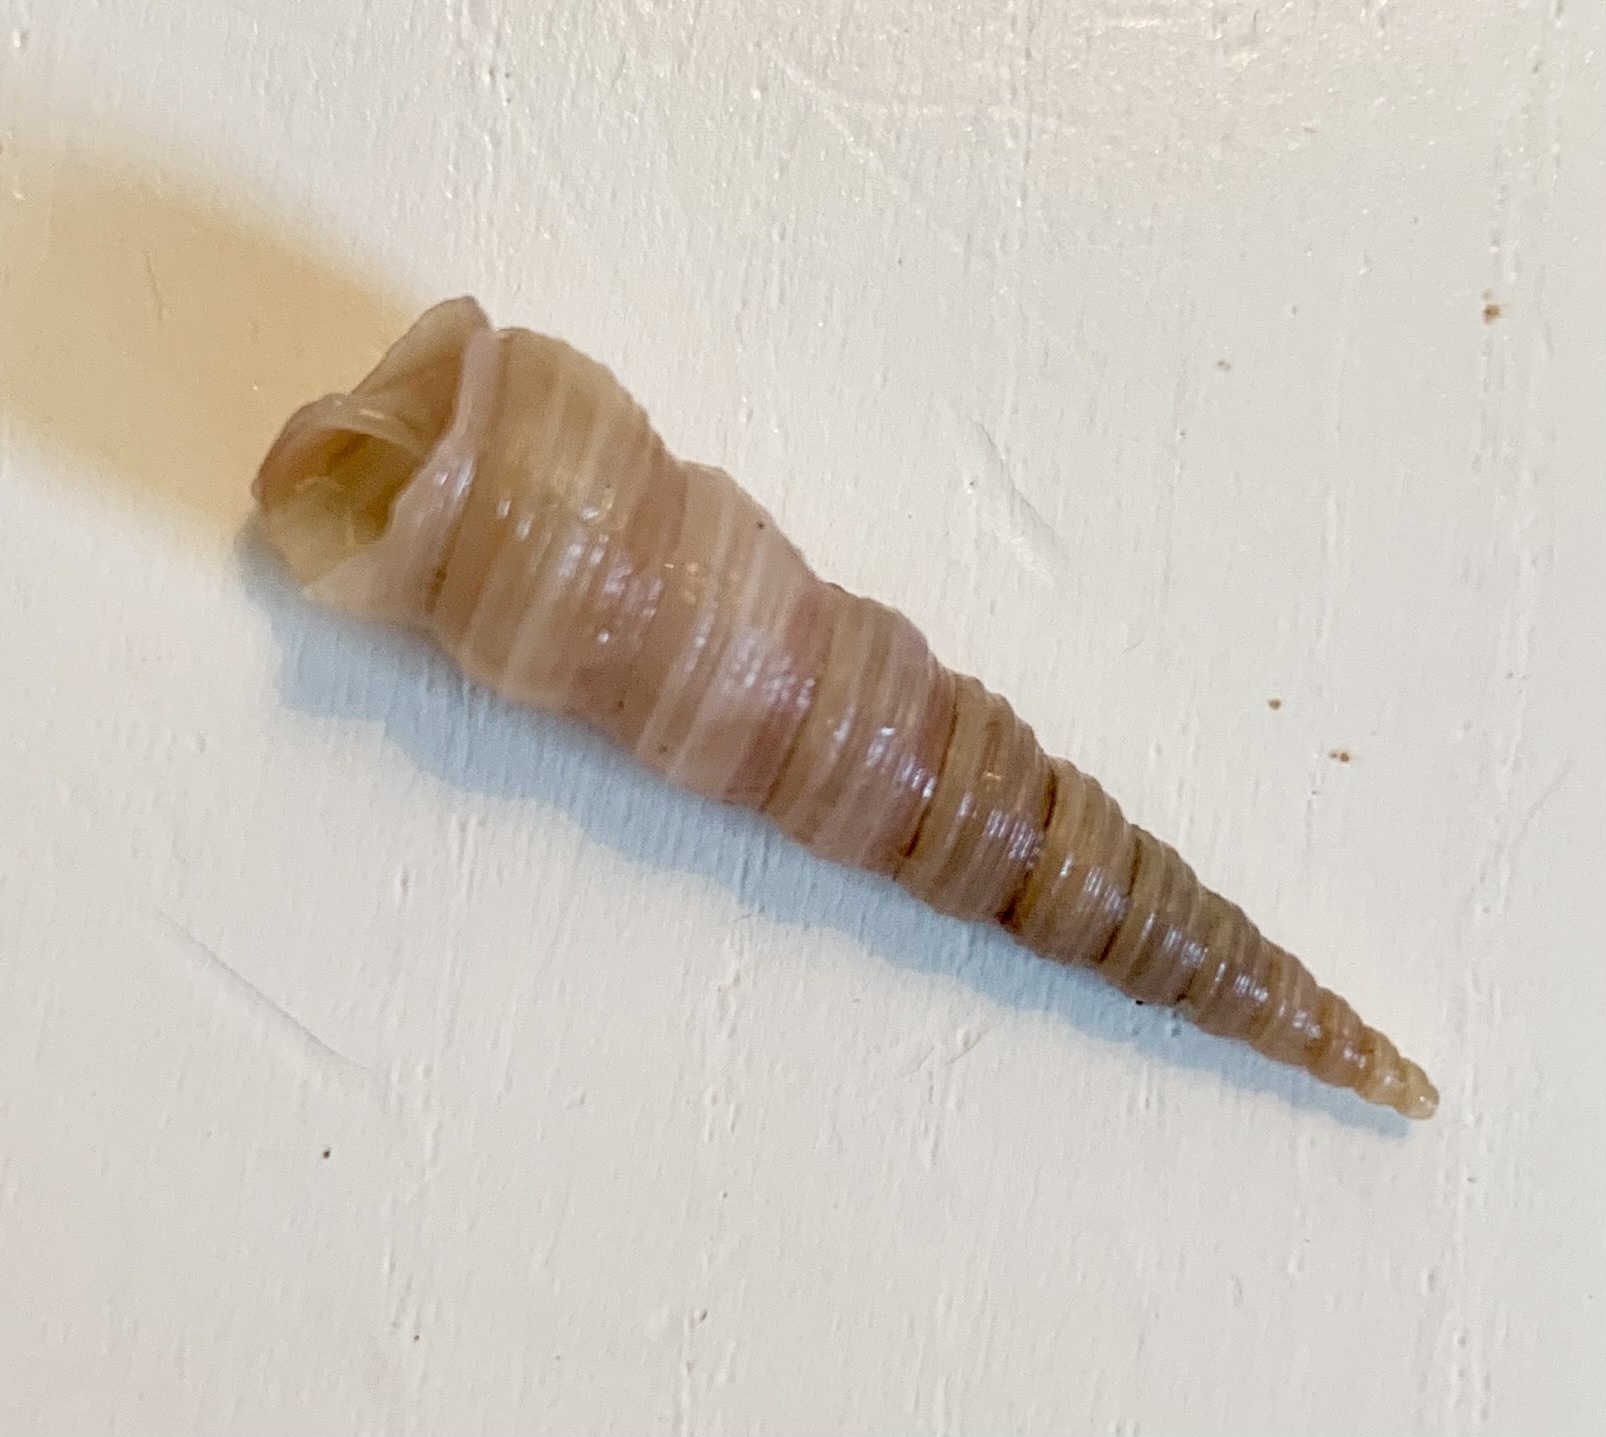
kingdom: Animalia
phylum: Mollusca
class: Gastropoda
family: Turritellidae
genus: Turritellinella
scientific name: Turritellinella tricarinata
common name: Auger shell
